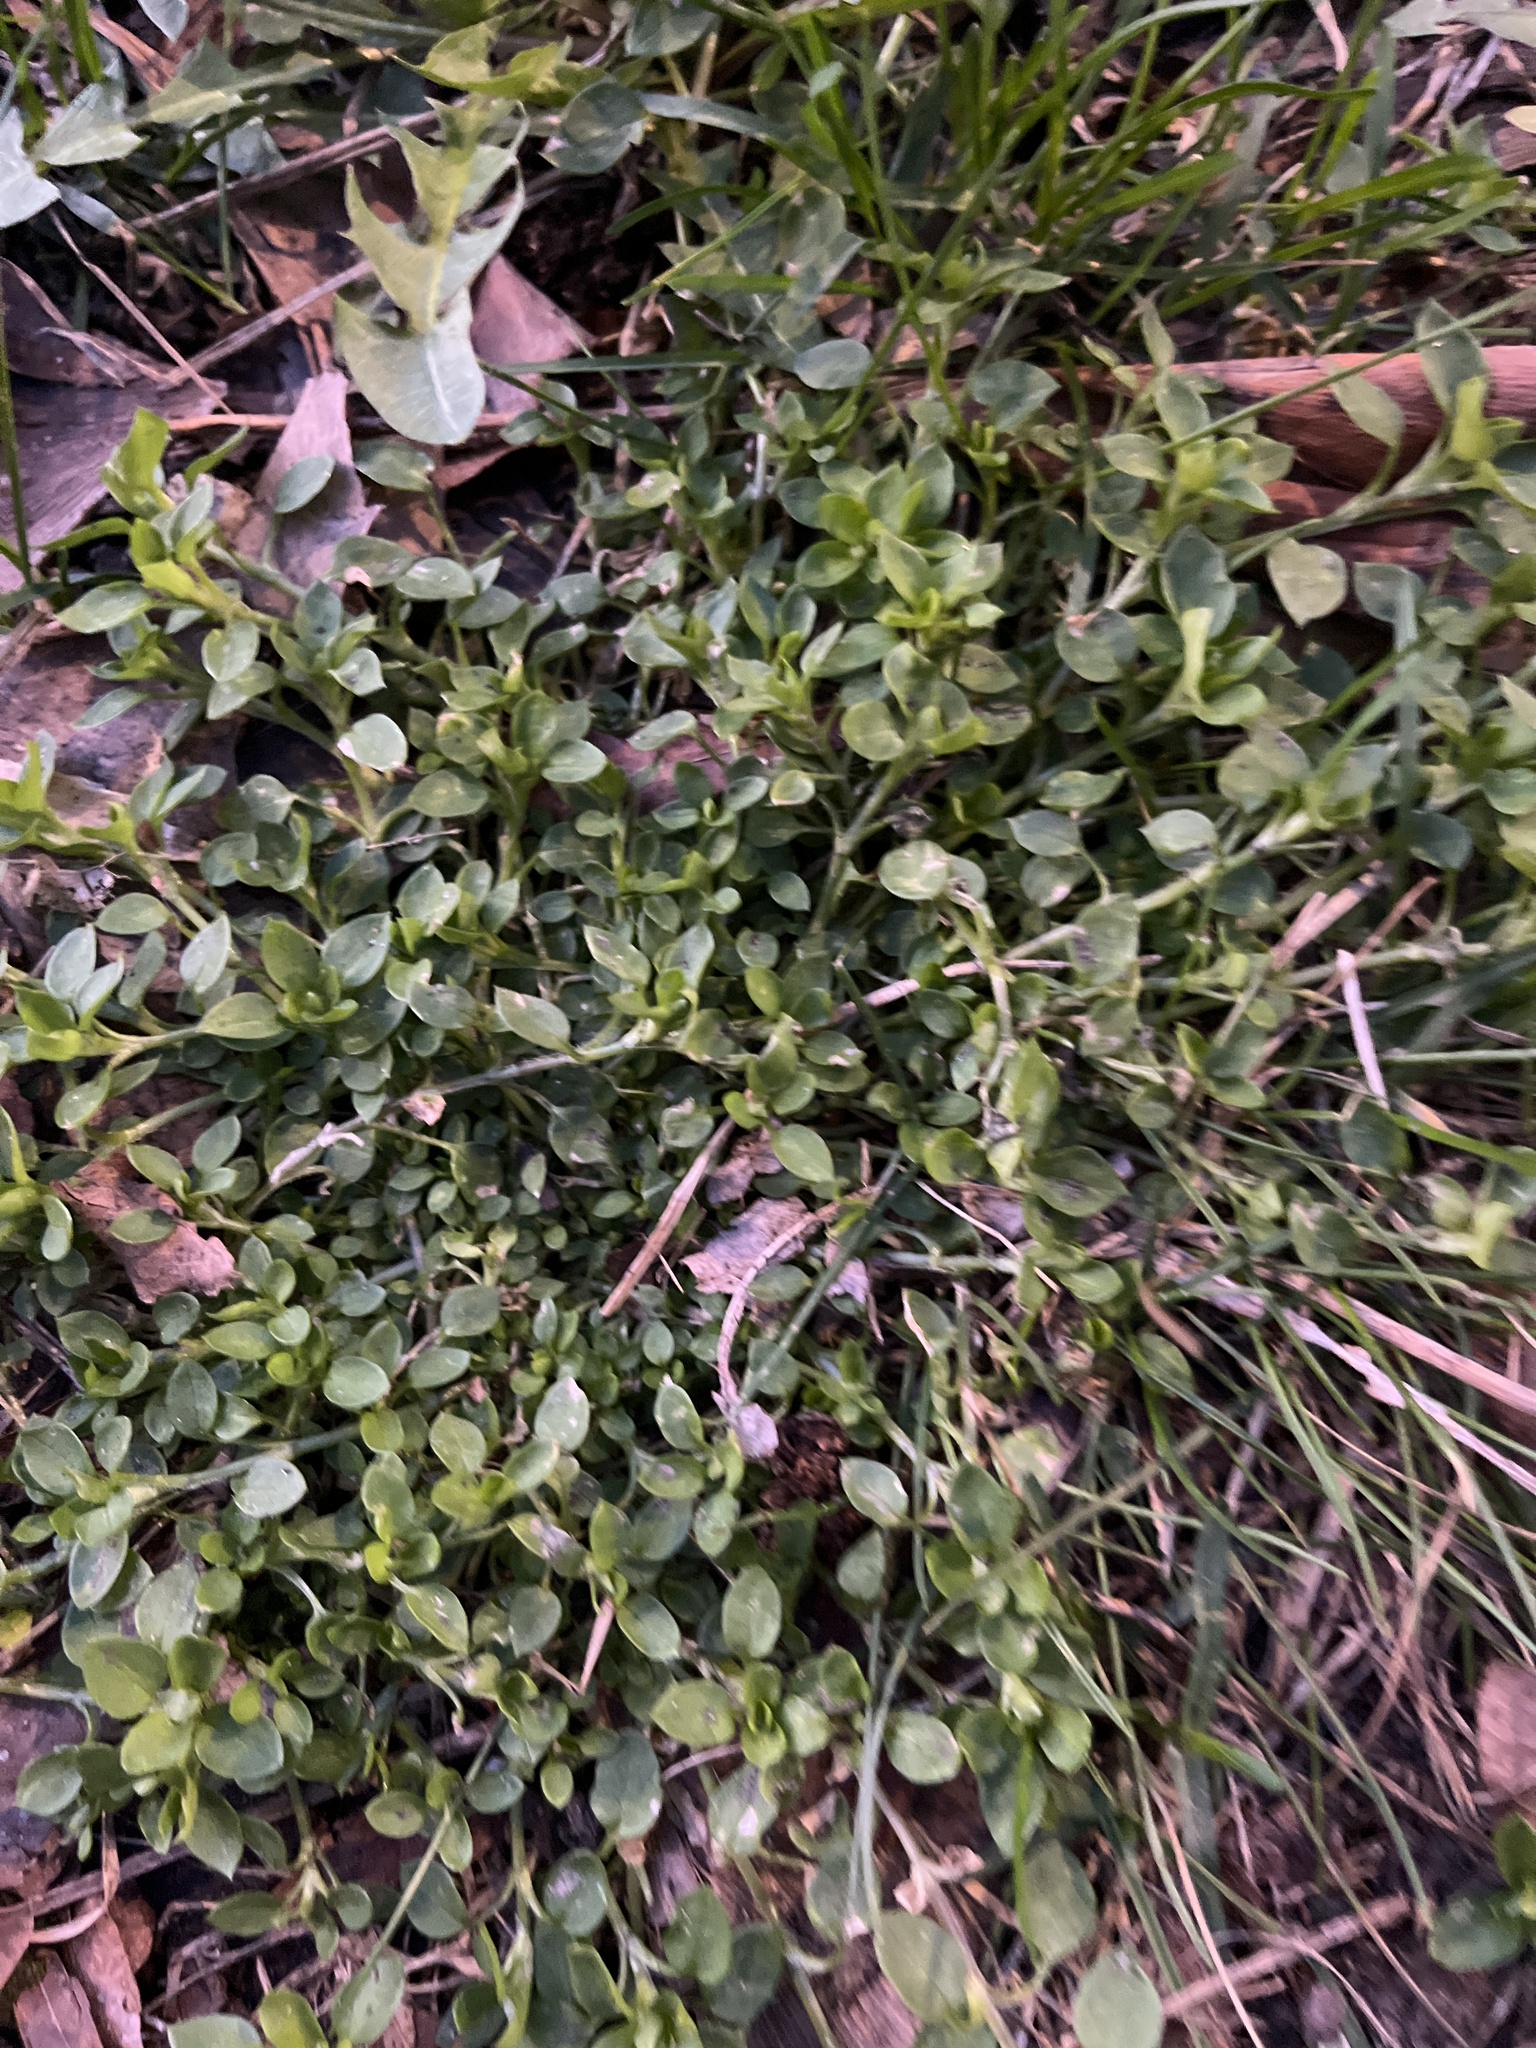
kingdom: Plantae
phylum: Tracheophyta
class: Magnoliopsida
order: Caryophyllales
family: Caryophyllaceae
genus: Stellaria
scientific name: Stellaria media
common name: Common chickweed
